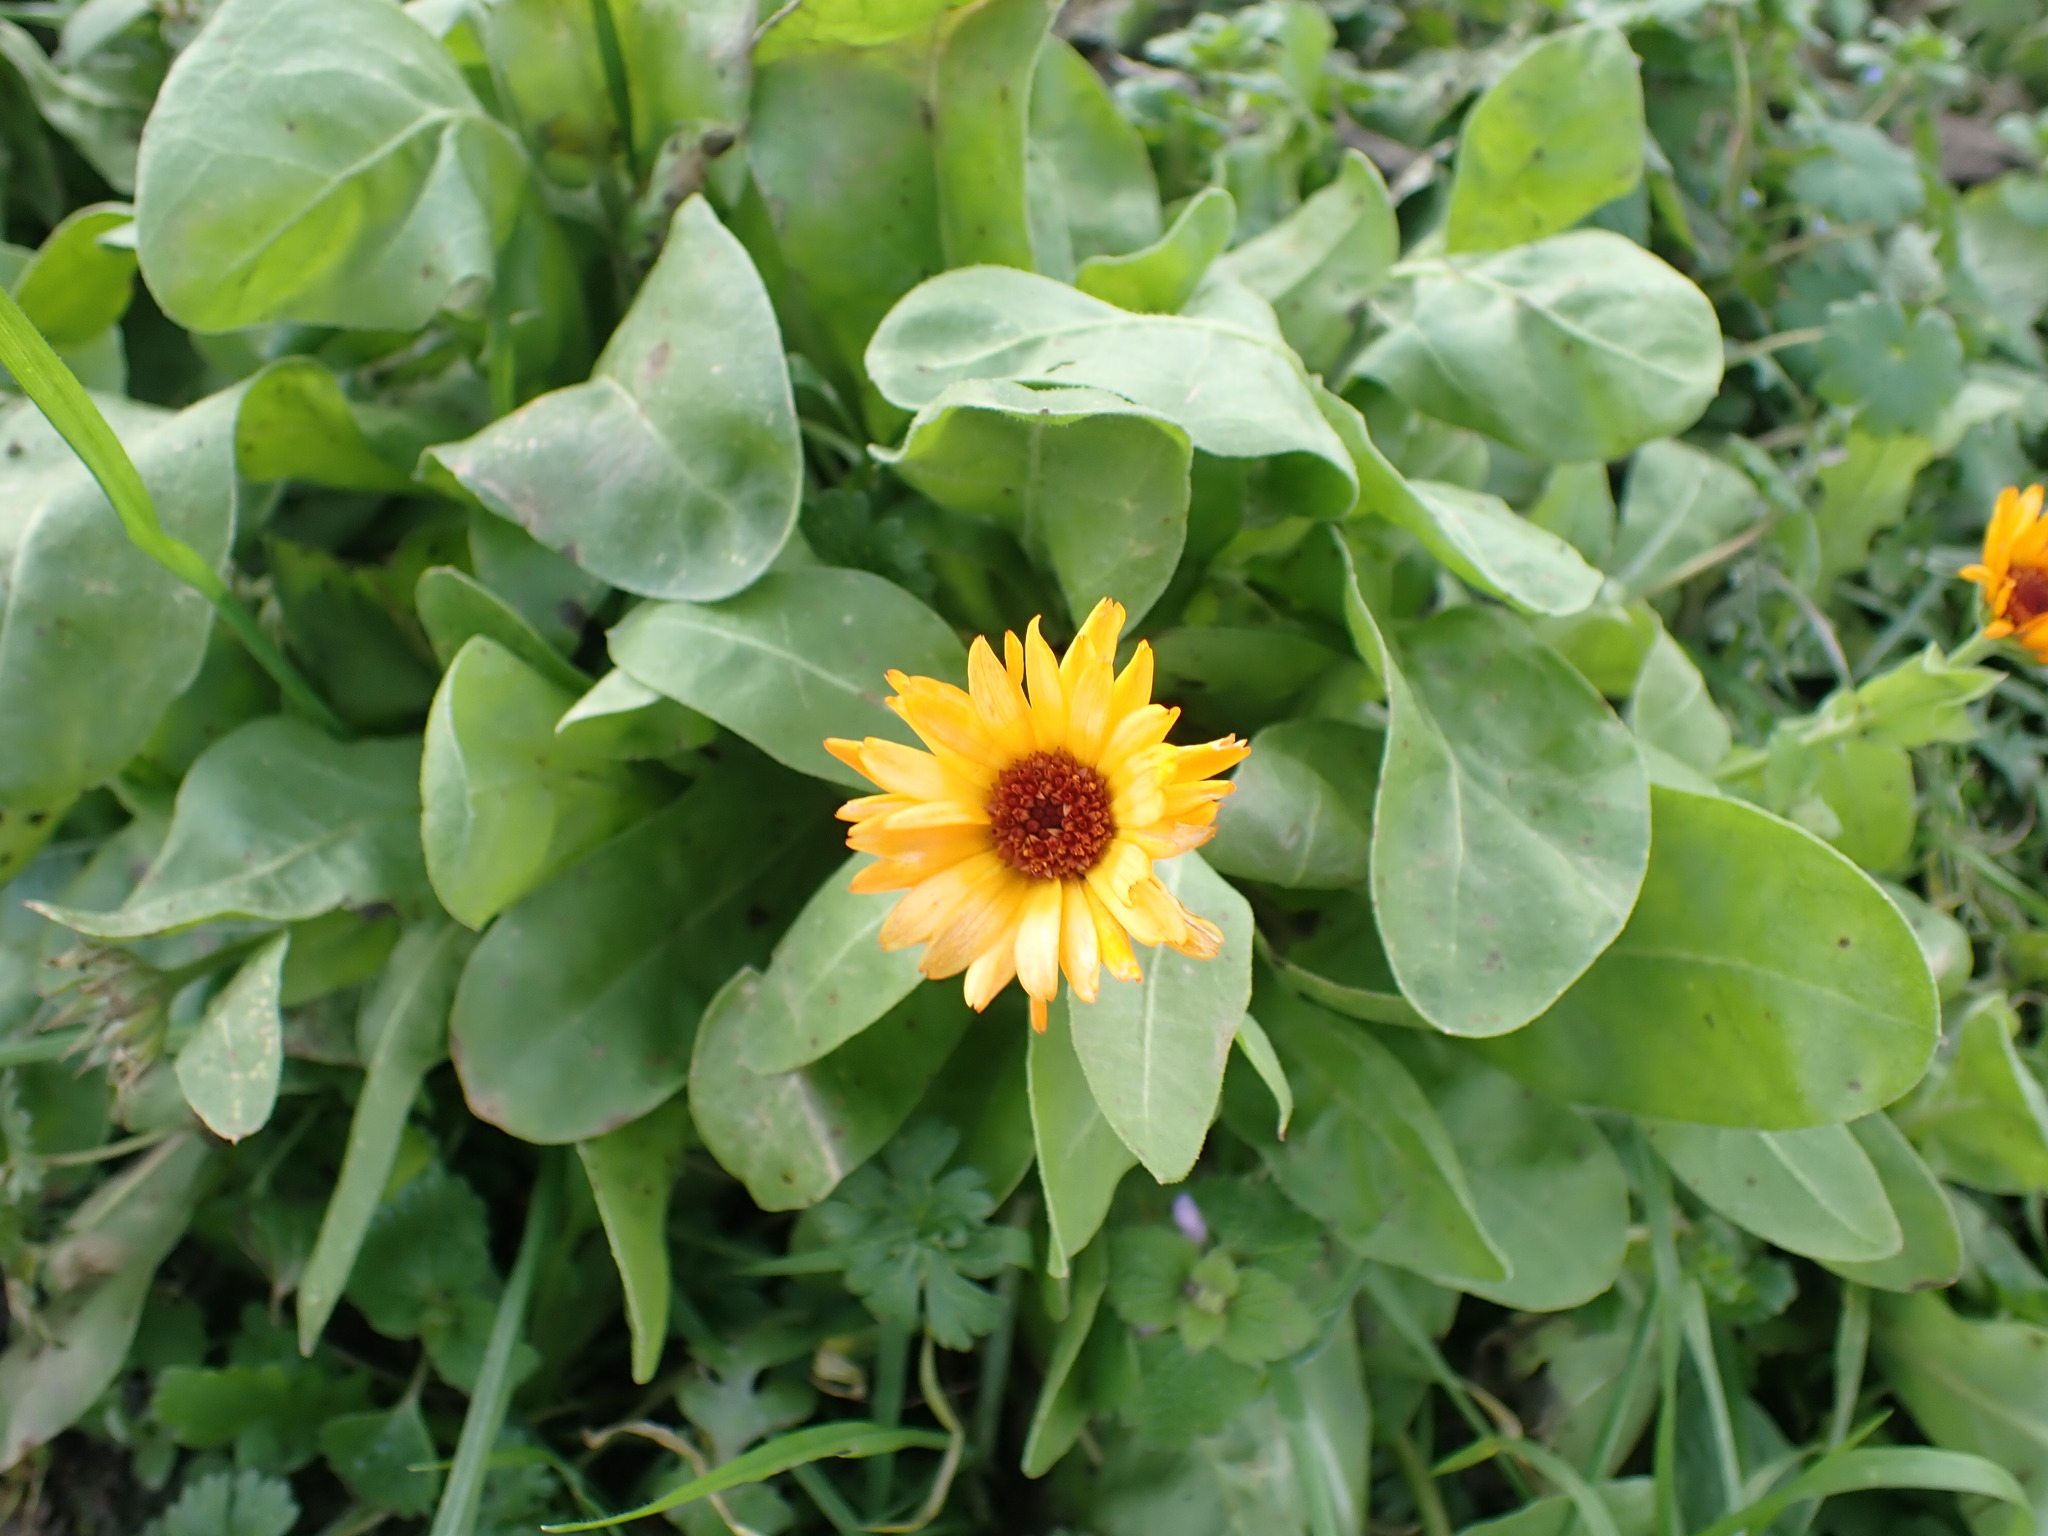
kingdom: Plantae
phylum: Tracheophyta
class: Magnoliopsida
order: Asterales
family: Asteraceae
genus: Calendula
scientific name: Calendula officinalis
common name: Pot marigold
